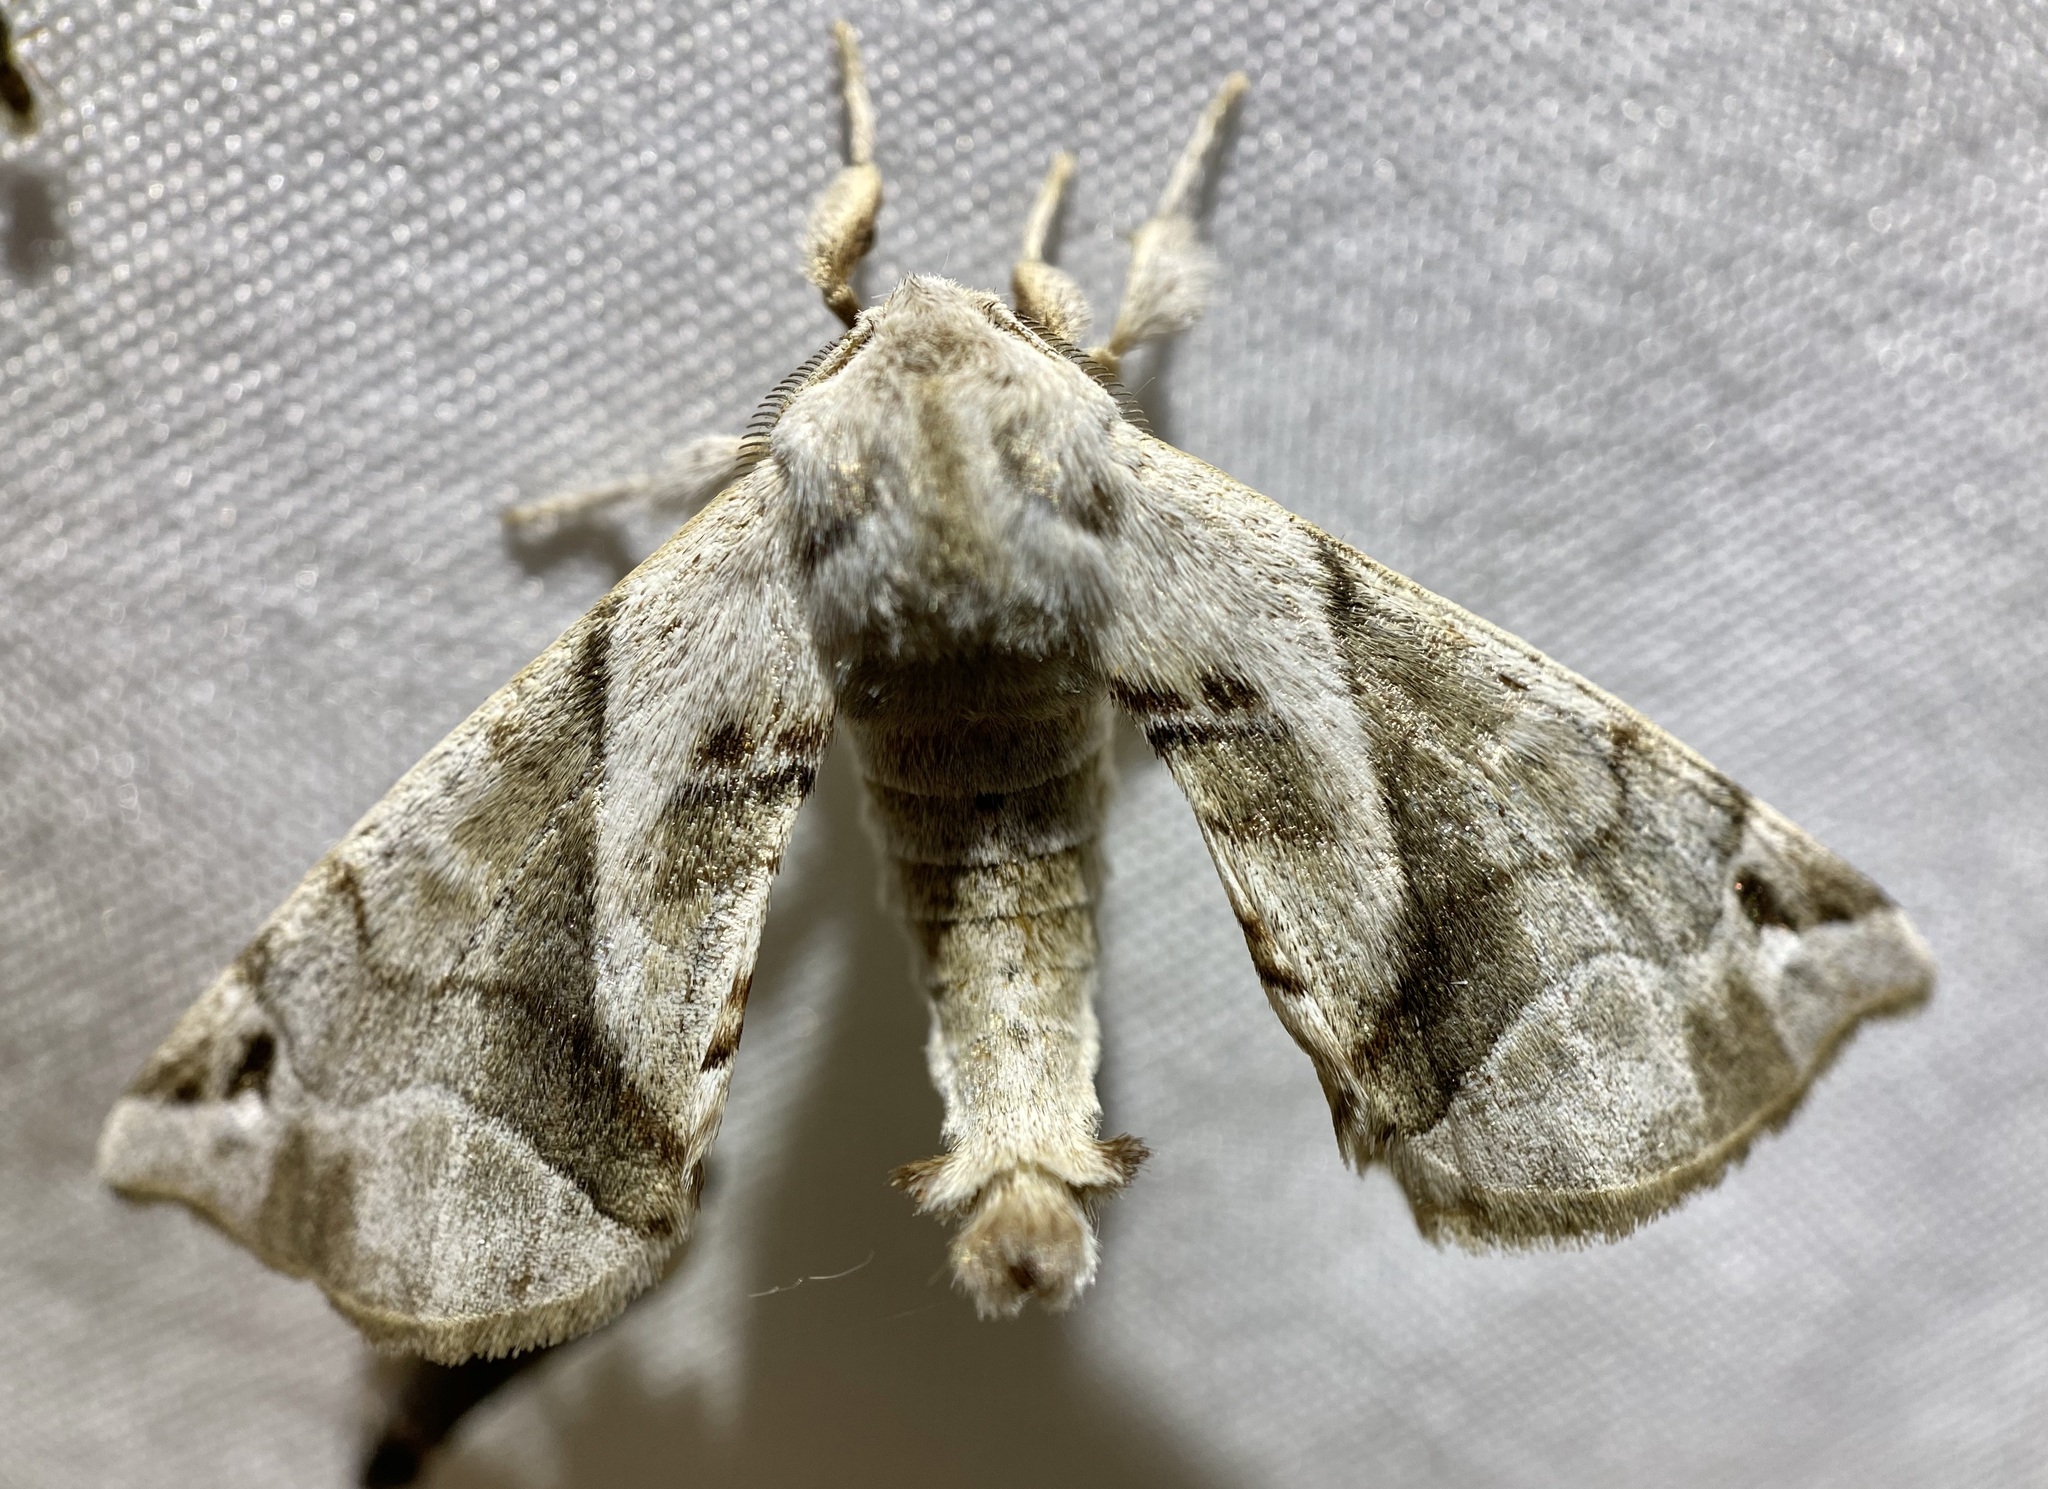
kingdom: Animalia
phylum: Arthropoda
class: Insecta
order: Lepidoptera
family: Apatelodidae
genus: Hygrochroa
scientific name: Hygrochroa Apatelodes pudefacta
